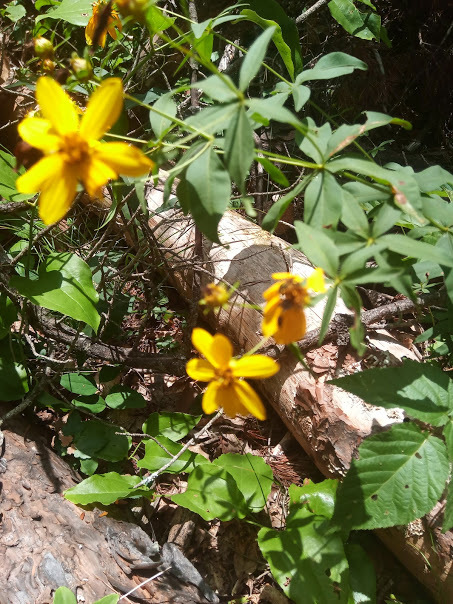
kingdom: Plantae
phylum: Tracheophyta
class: Magnoliopsida
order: Asterales
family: Asteraceae
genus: Coreopsis
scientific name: Coreopsis major
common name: Forest tickseed
